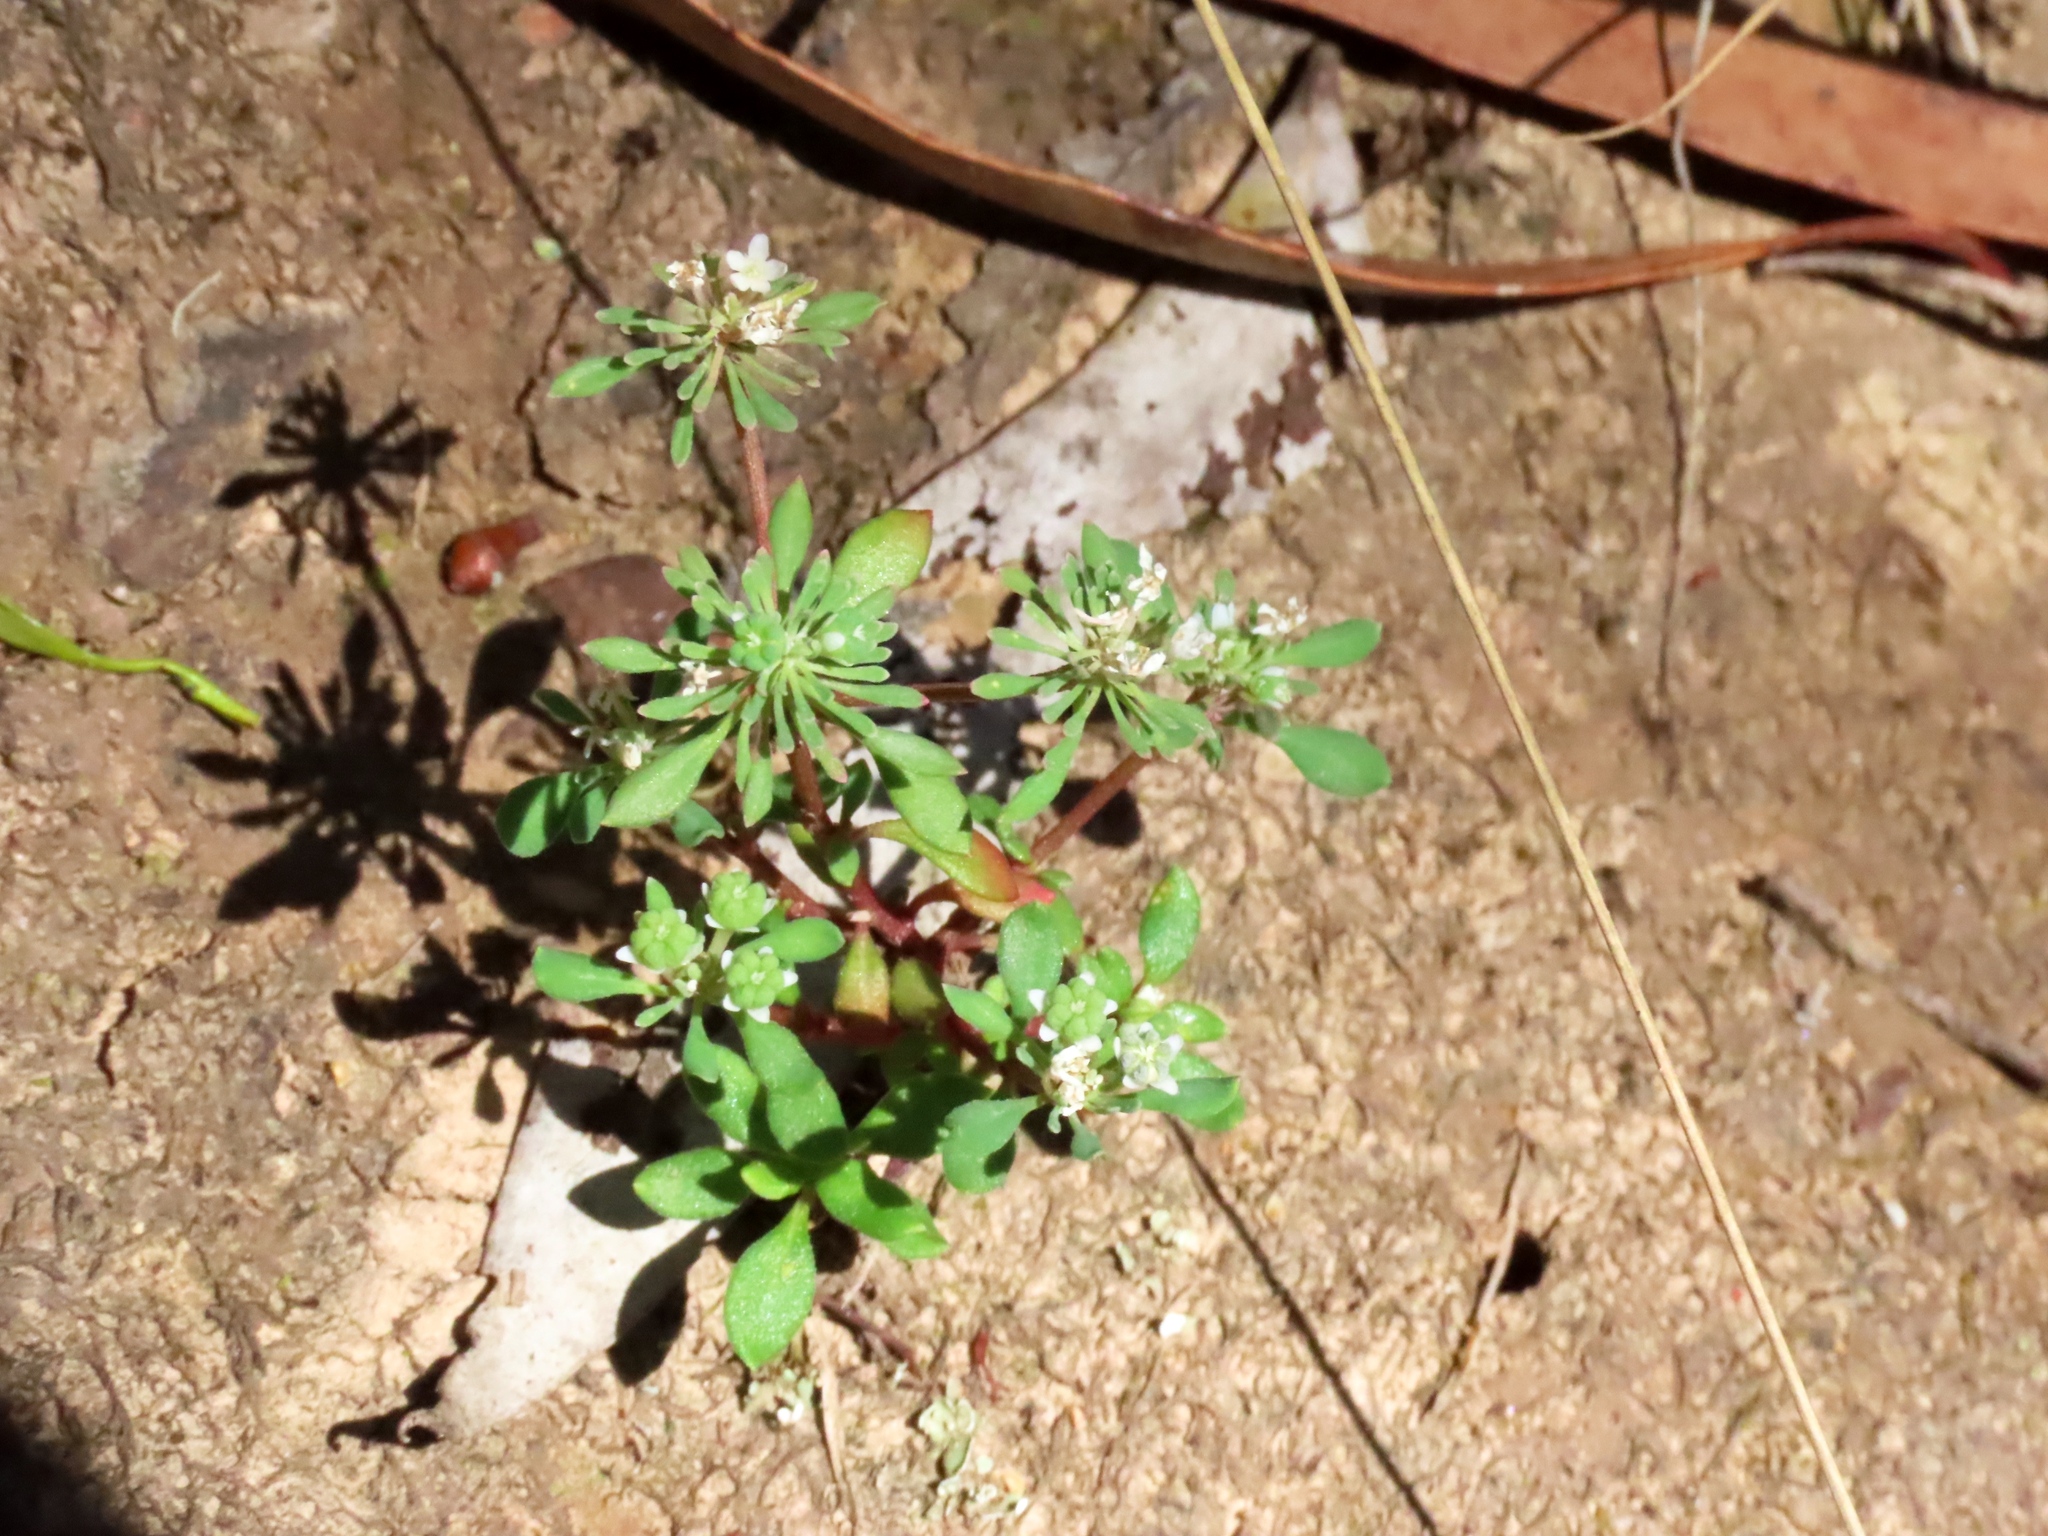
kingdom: Plantae
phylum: Tracheophyta
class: Magnoliopsida
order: Malpighiales
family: Phyllanthaceae
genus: Poranthera
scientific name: Poranthera microphylla
